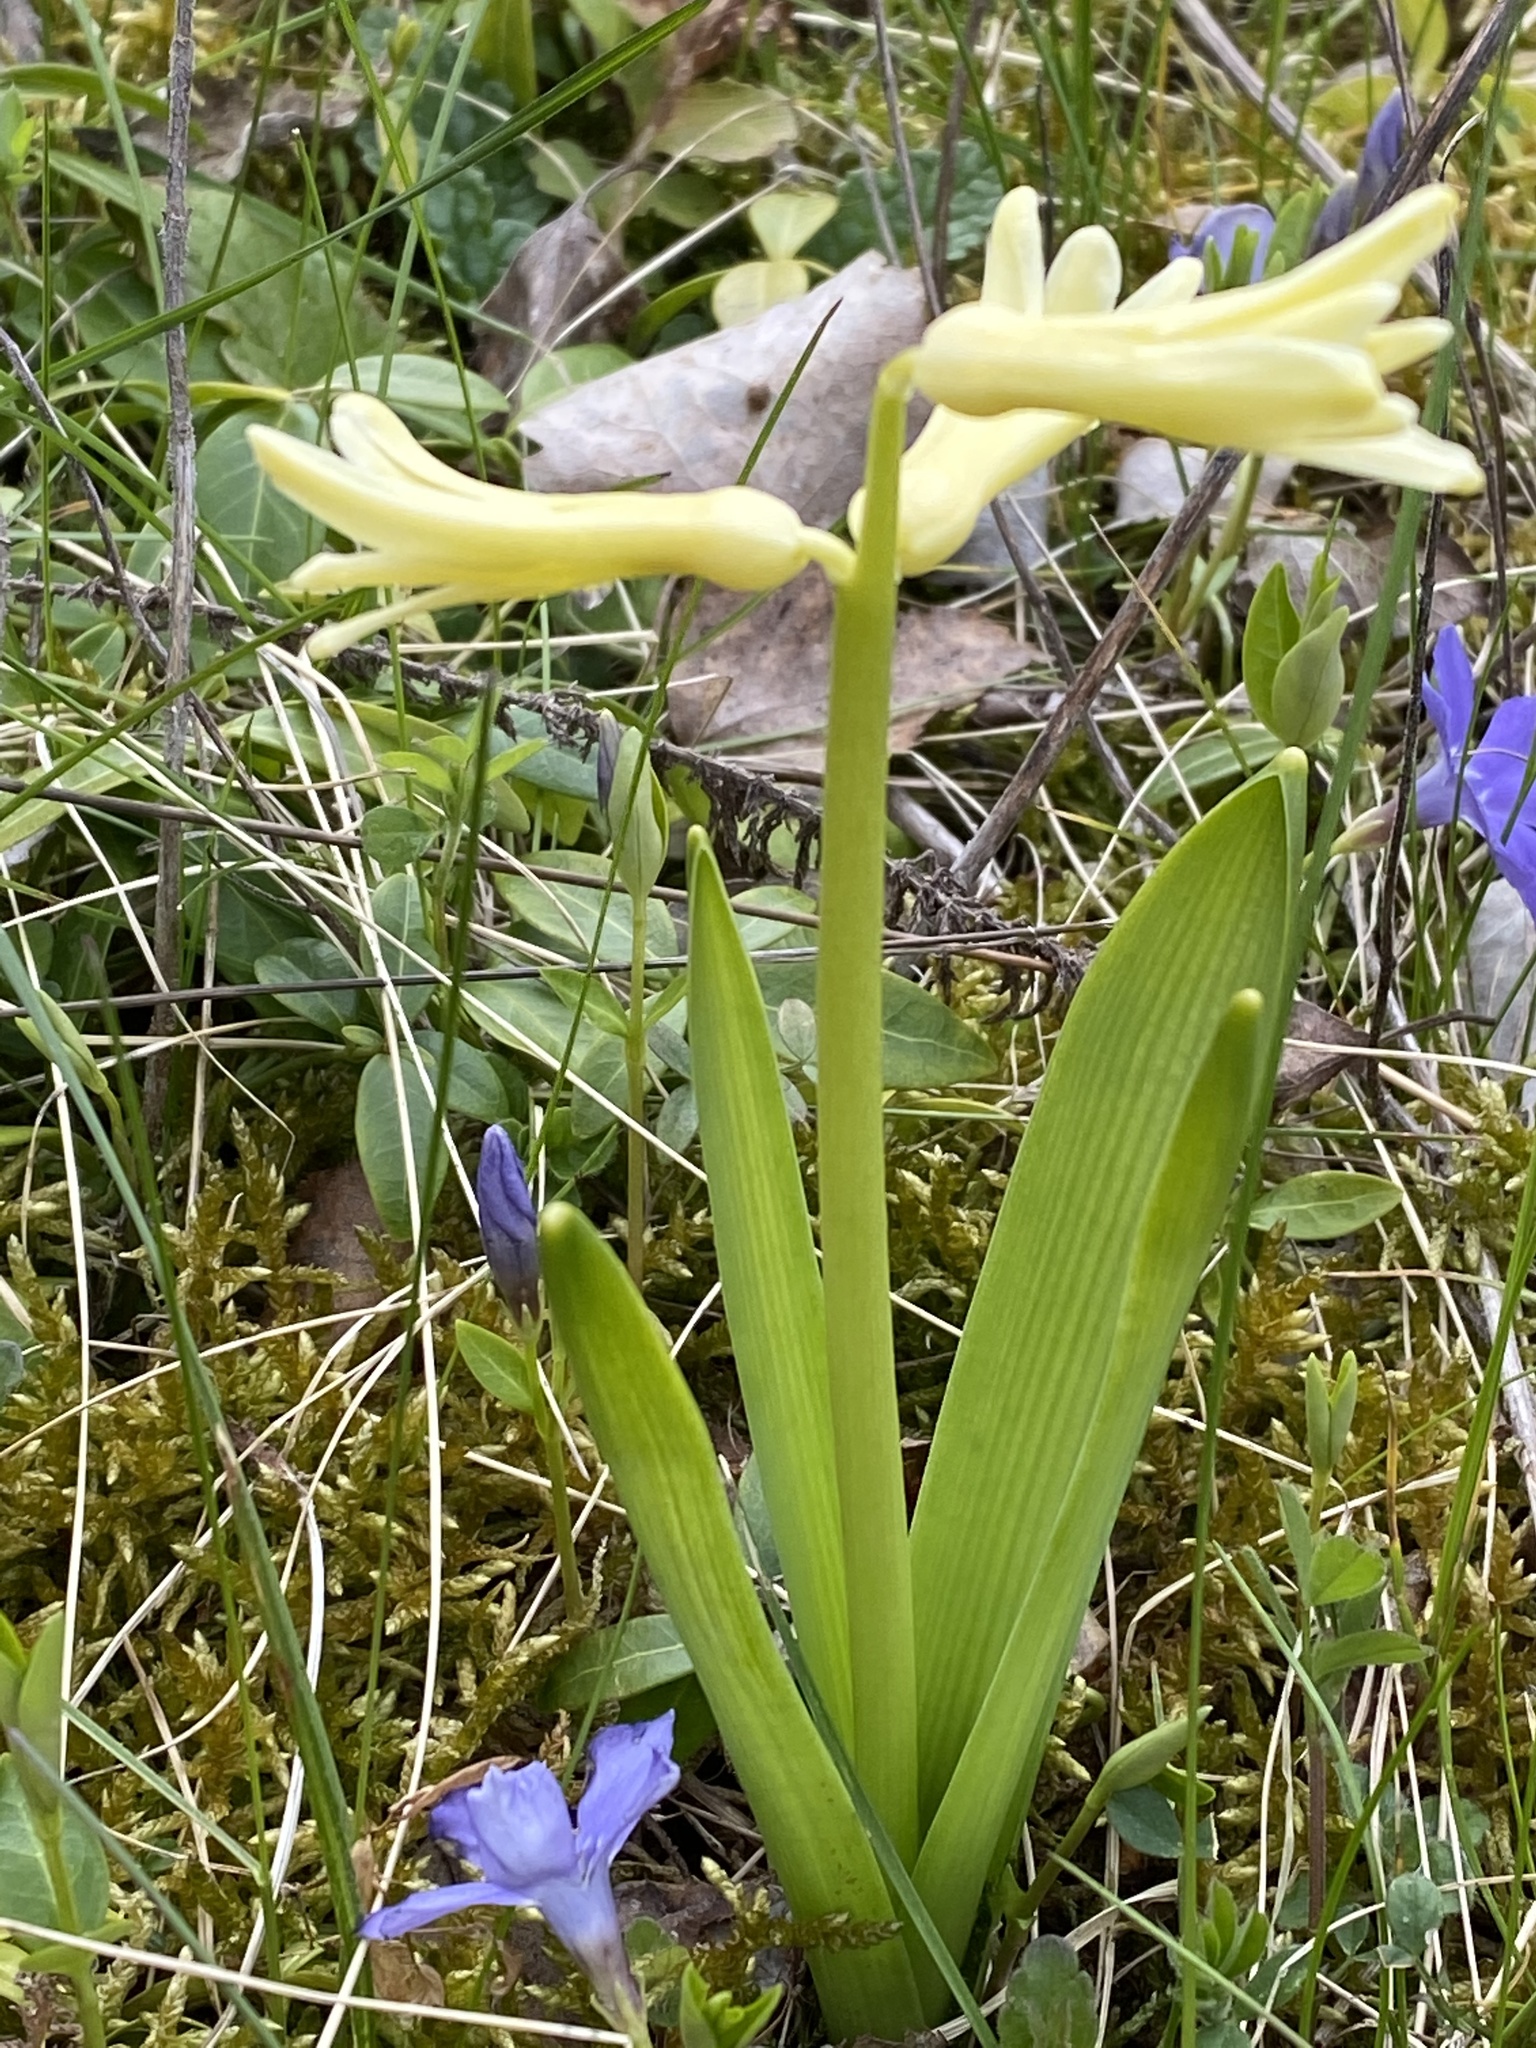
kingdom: Plantae
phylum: Tracheophyta
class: Liliopsida
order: Asparagales
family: Asparagaceae
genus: Hyacinthus
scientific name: Hyacinthus orientalis
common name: Hyacinth
